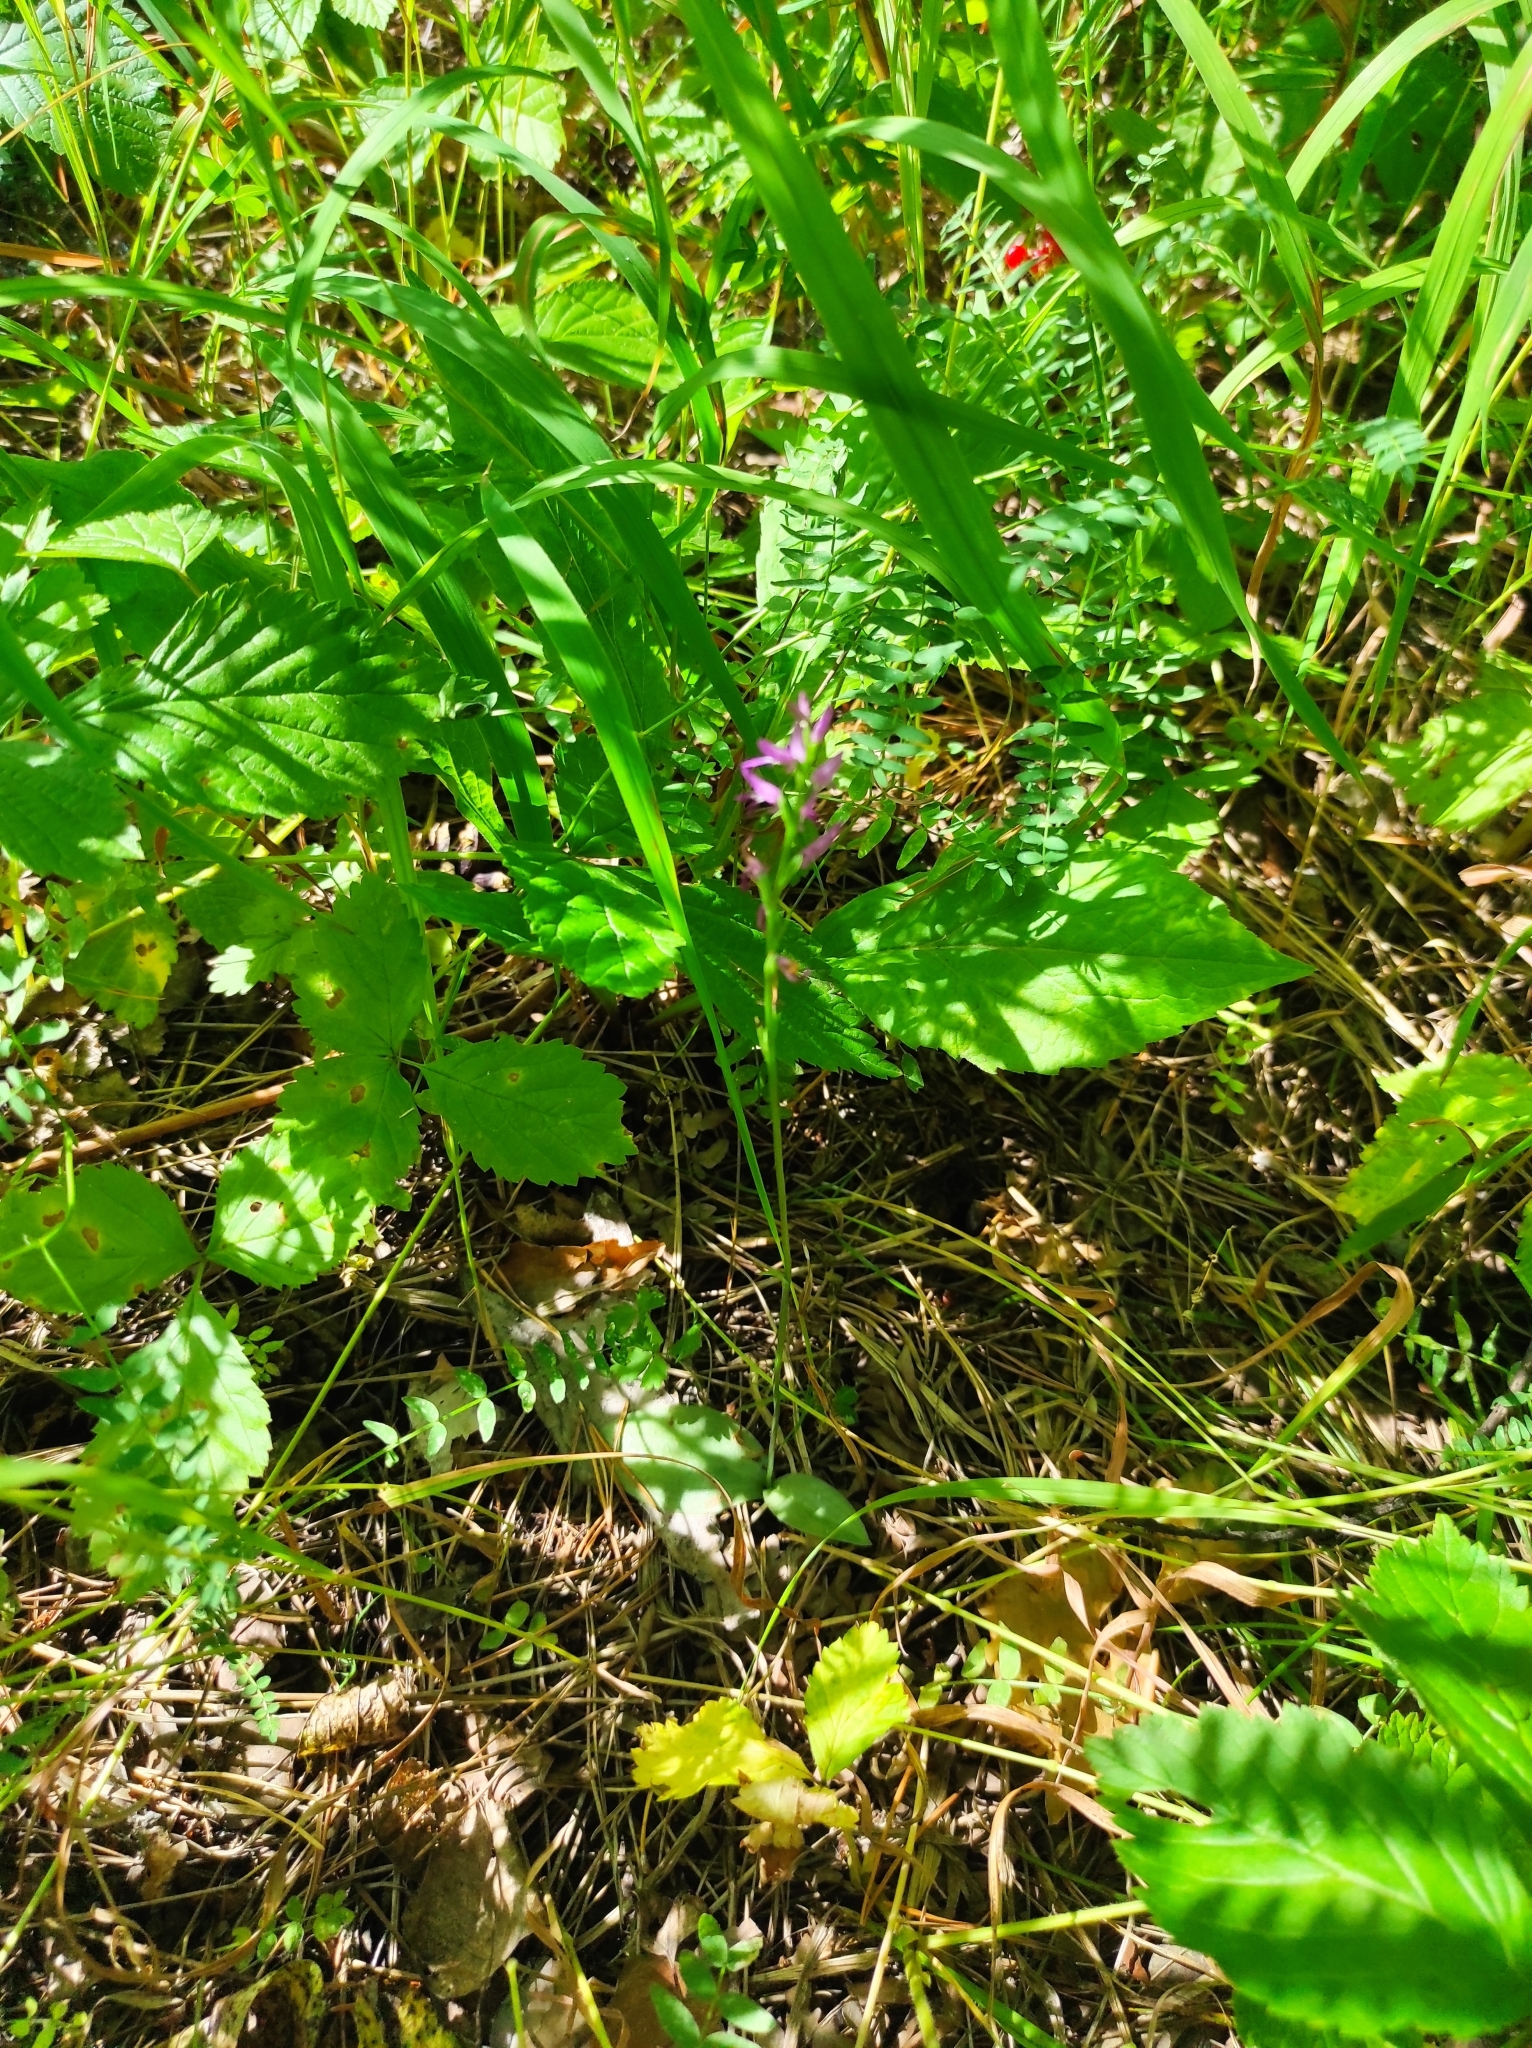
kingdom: Plantae
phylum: Tracheophyta
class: Liliopsida
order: Asparagales
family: Orchidaceae
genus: Hemipilia
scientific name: Hemipilia cucullata
